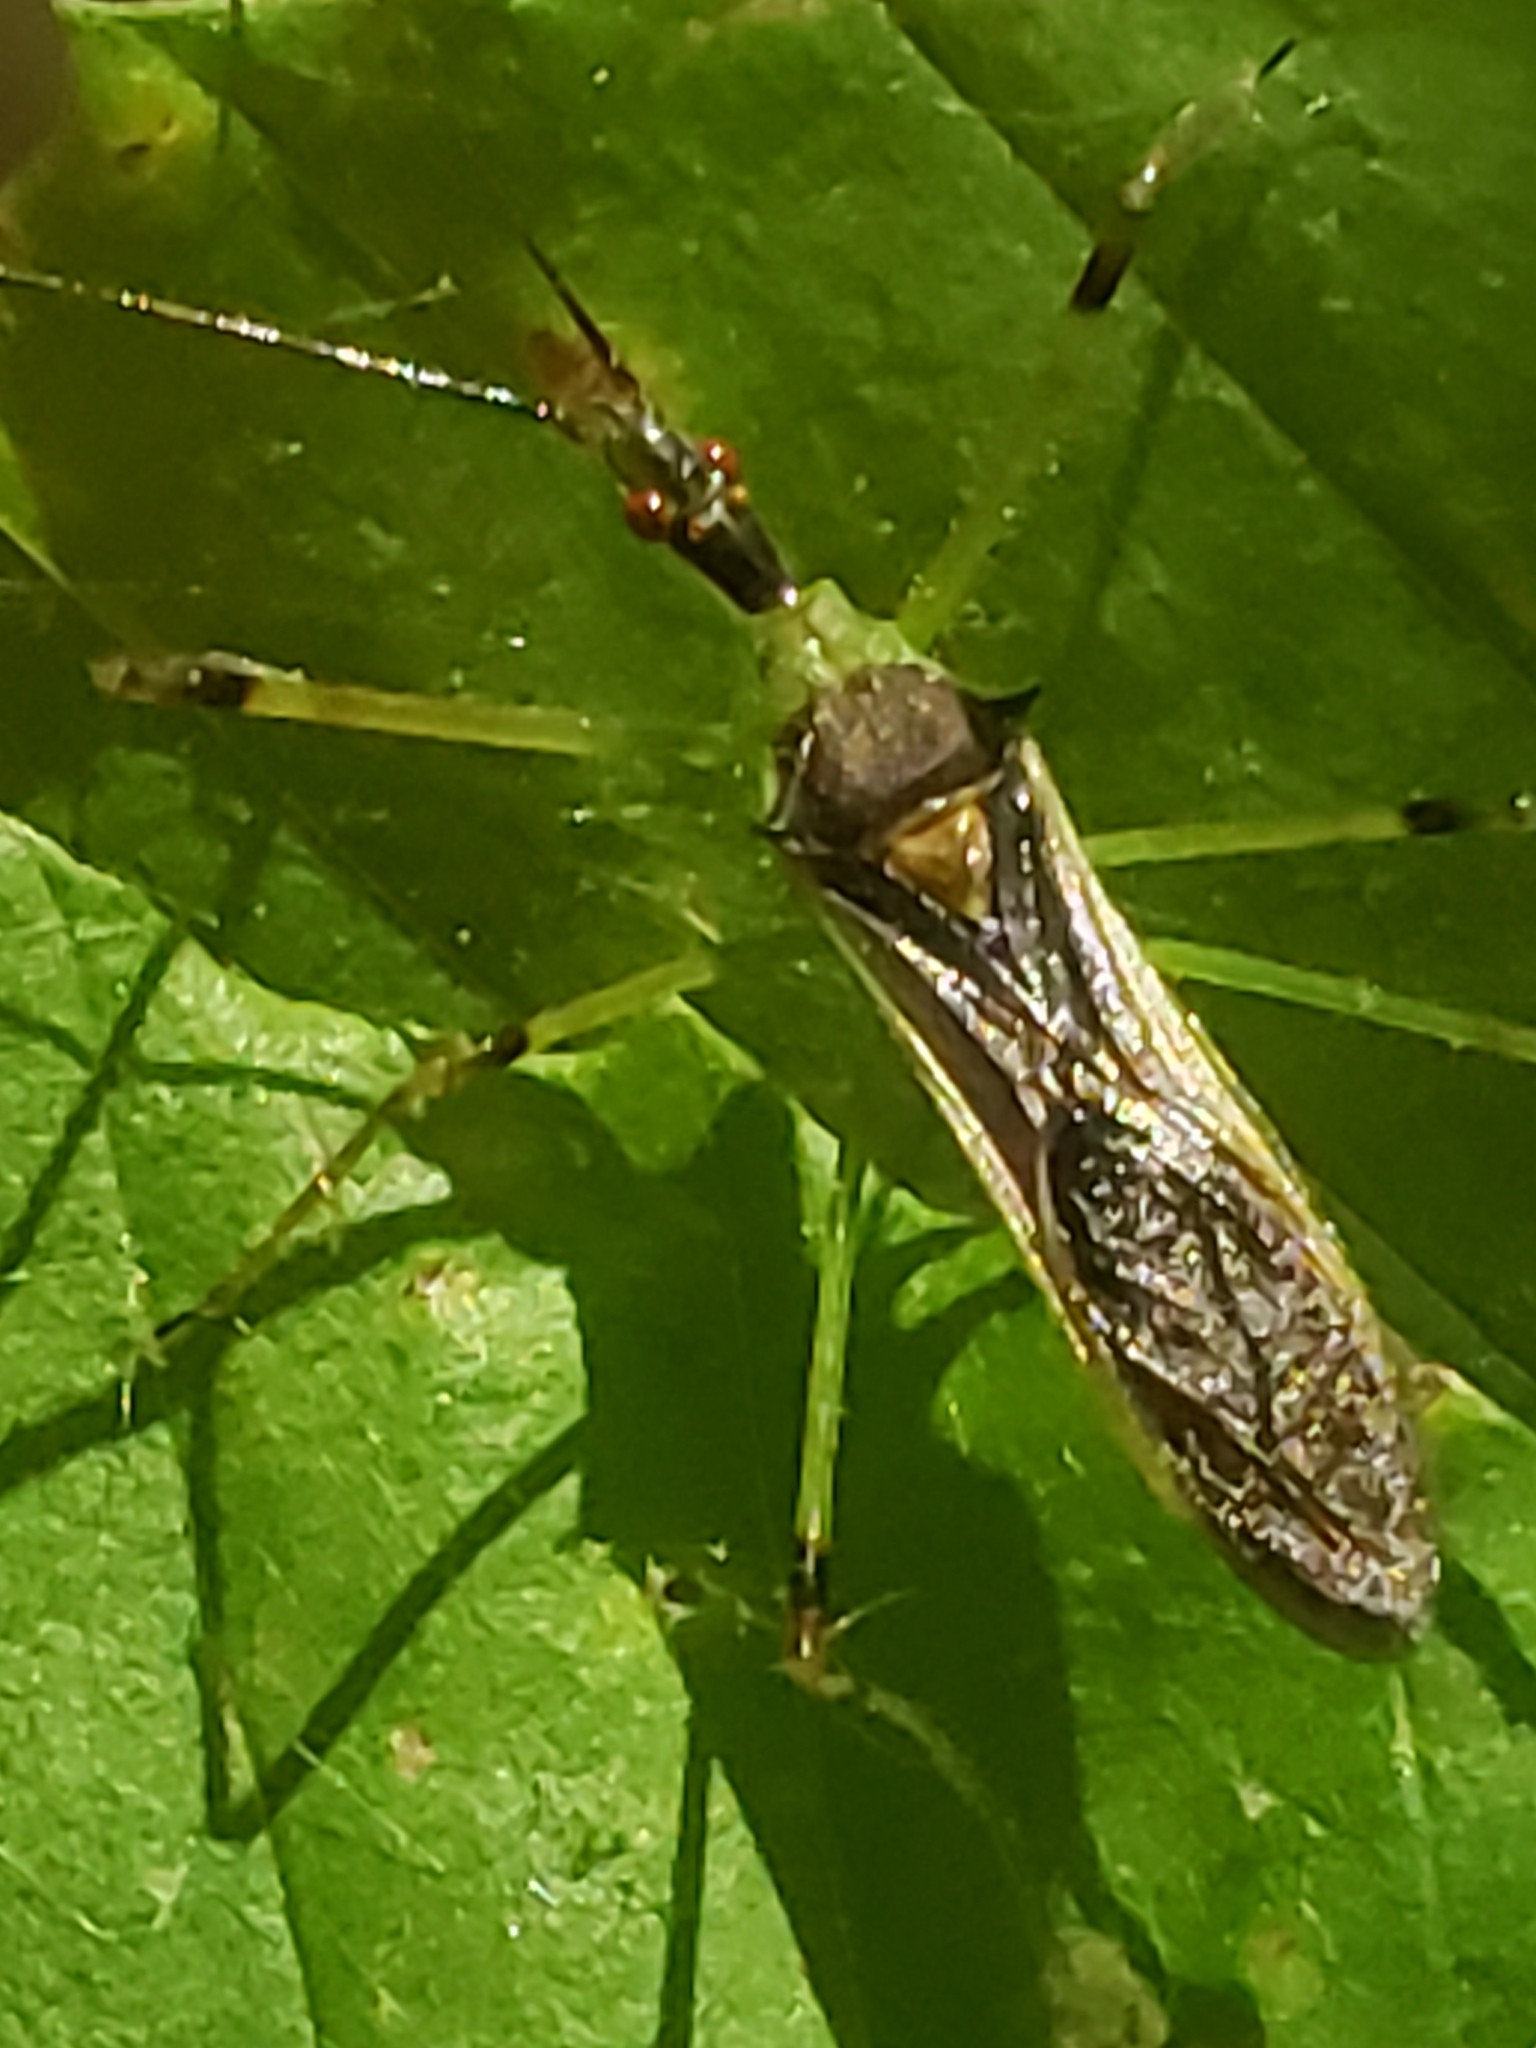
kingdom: Animalia
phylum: Arthropoda
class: Insecta
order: Hemiptera
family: Reduviidae
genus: Zelus
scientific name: Zelus luridus
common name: Pale green assassin bug
